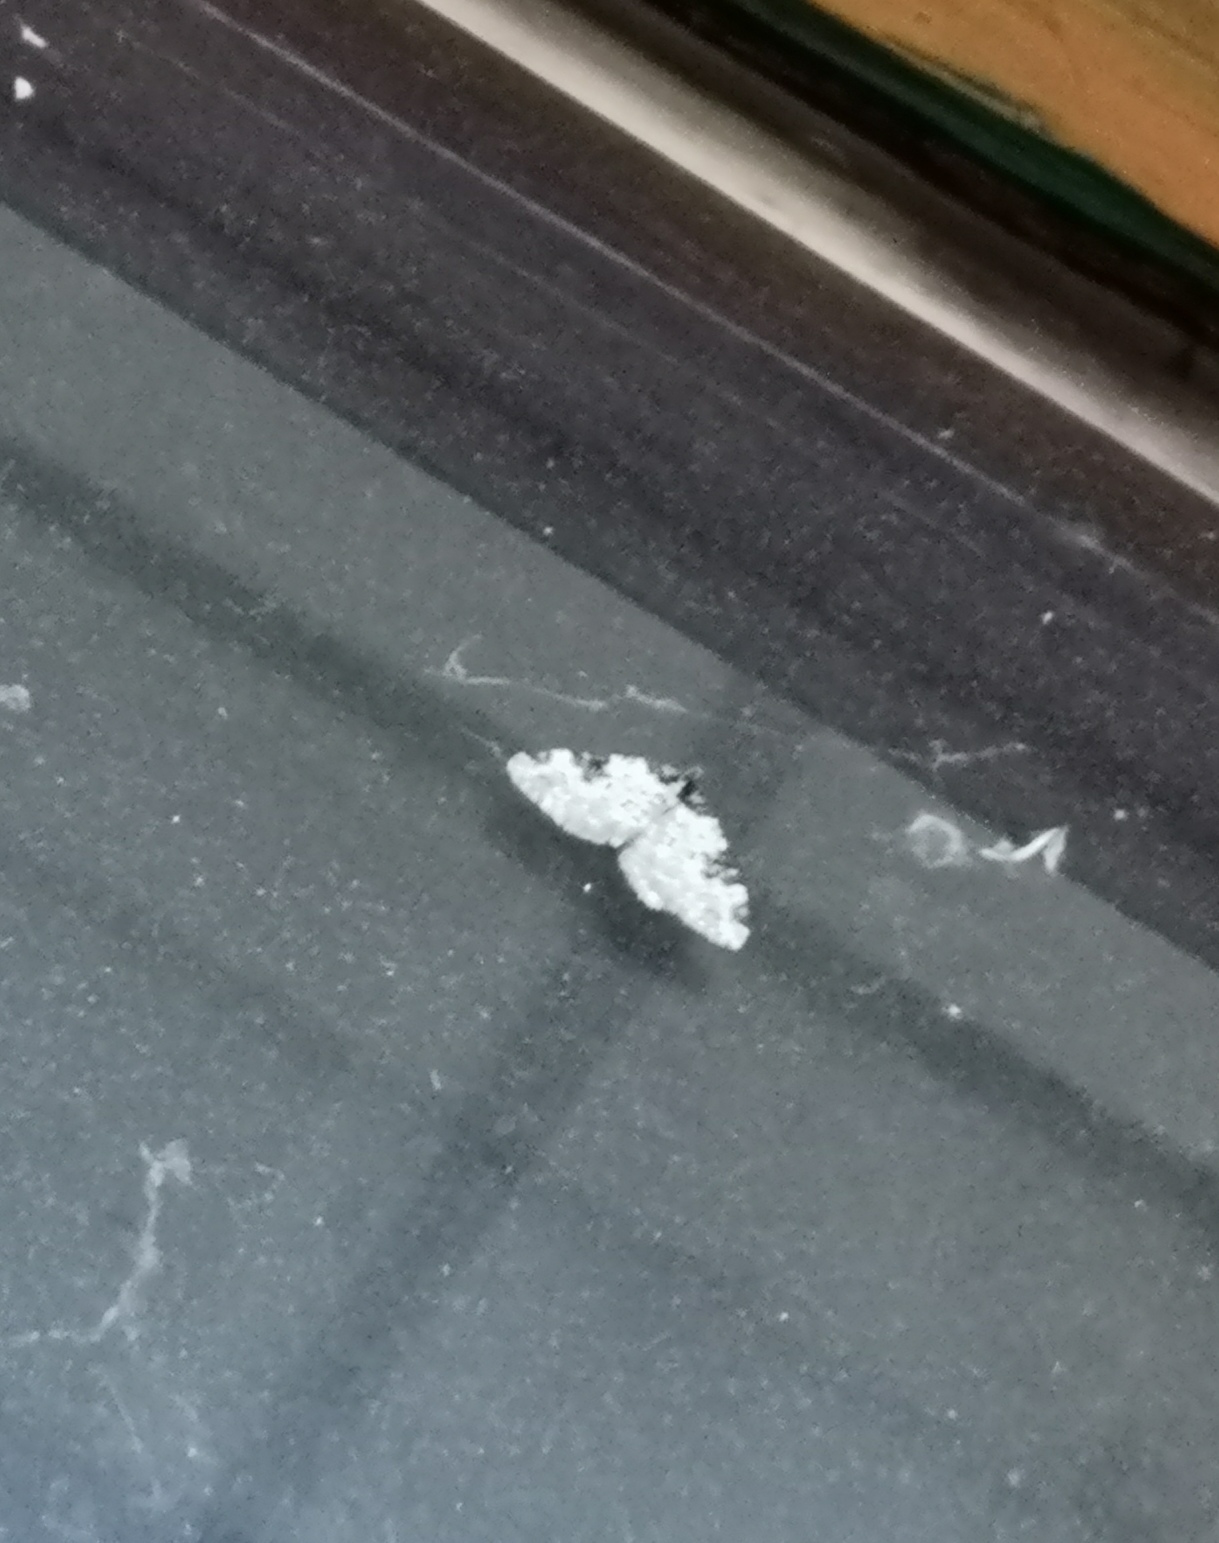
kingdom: Animalia
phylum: Arthropoda
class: Insecta
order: Lepidoptera
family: Geometridae
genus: Xanthorhoe
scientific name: Xanthorhoe fluctuata
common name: Garden carpet
